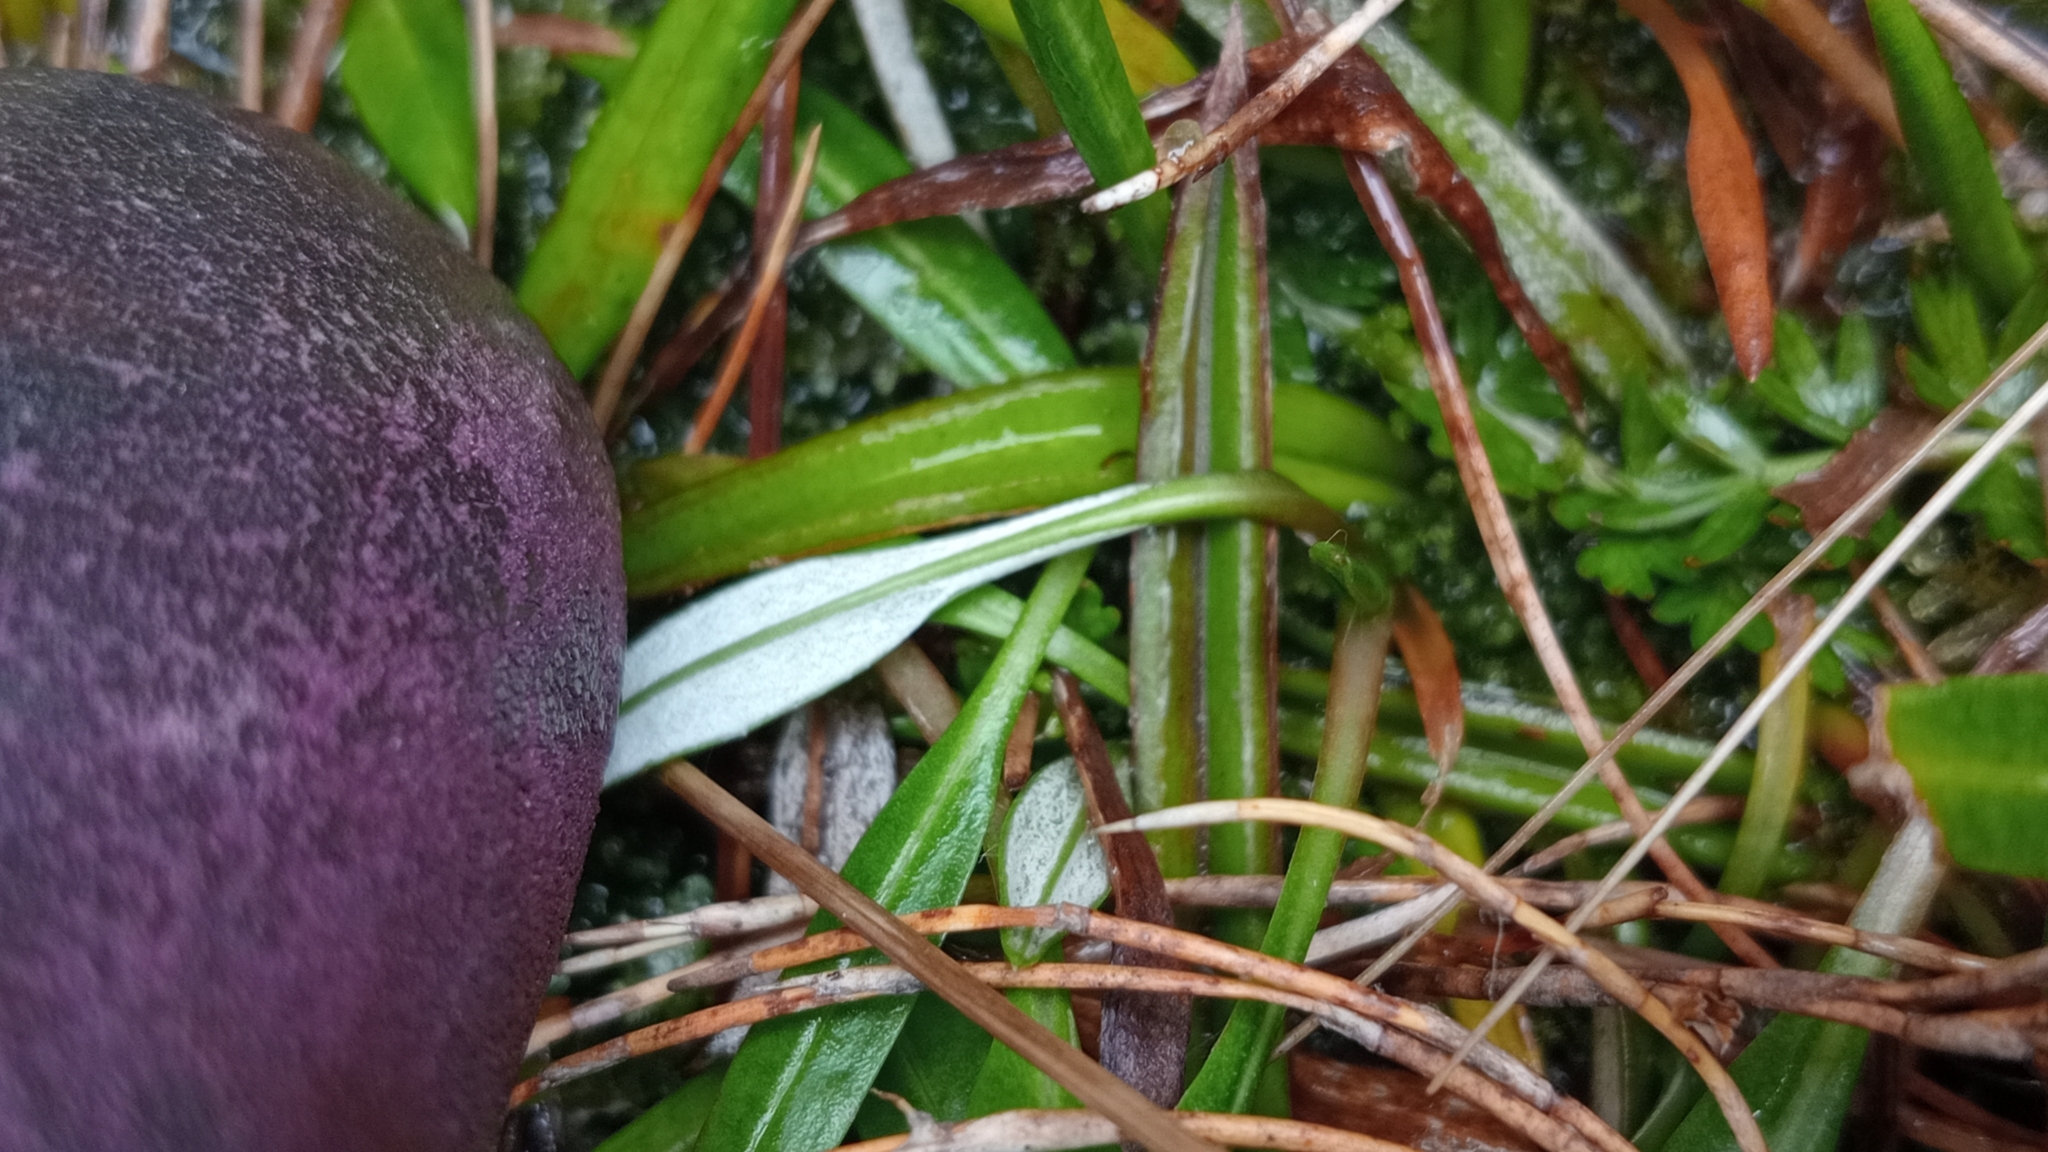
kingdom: Plantae
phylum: Tracheophyta
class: Magnoliopsida
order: Asterales
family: Asteraceae
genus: Celmisia
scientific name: Celmisia alpina
